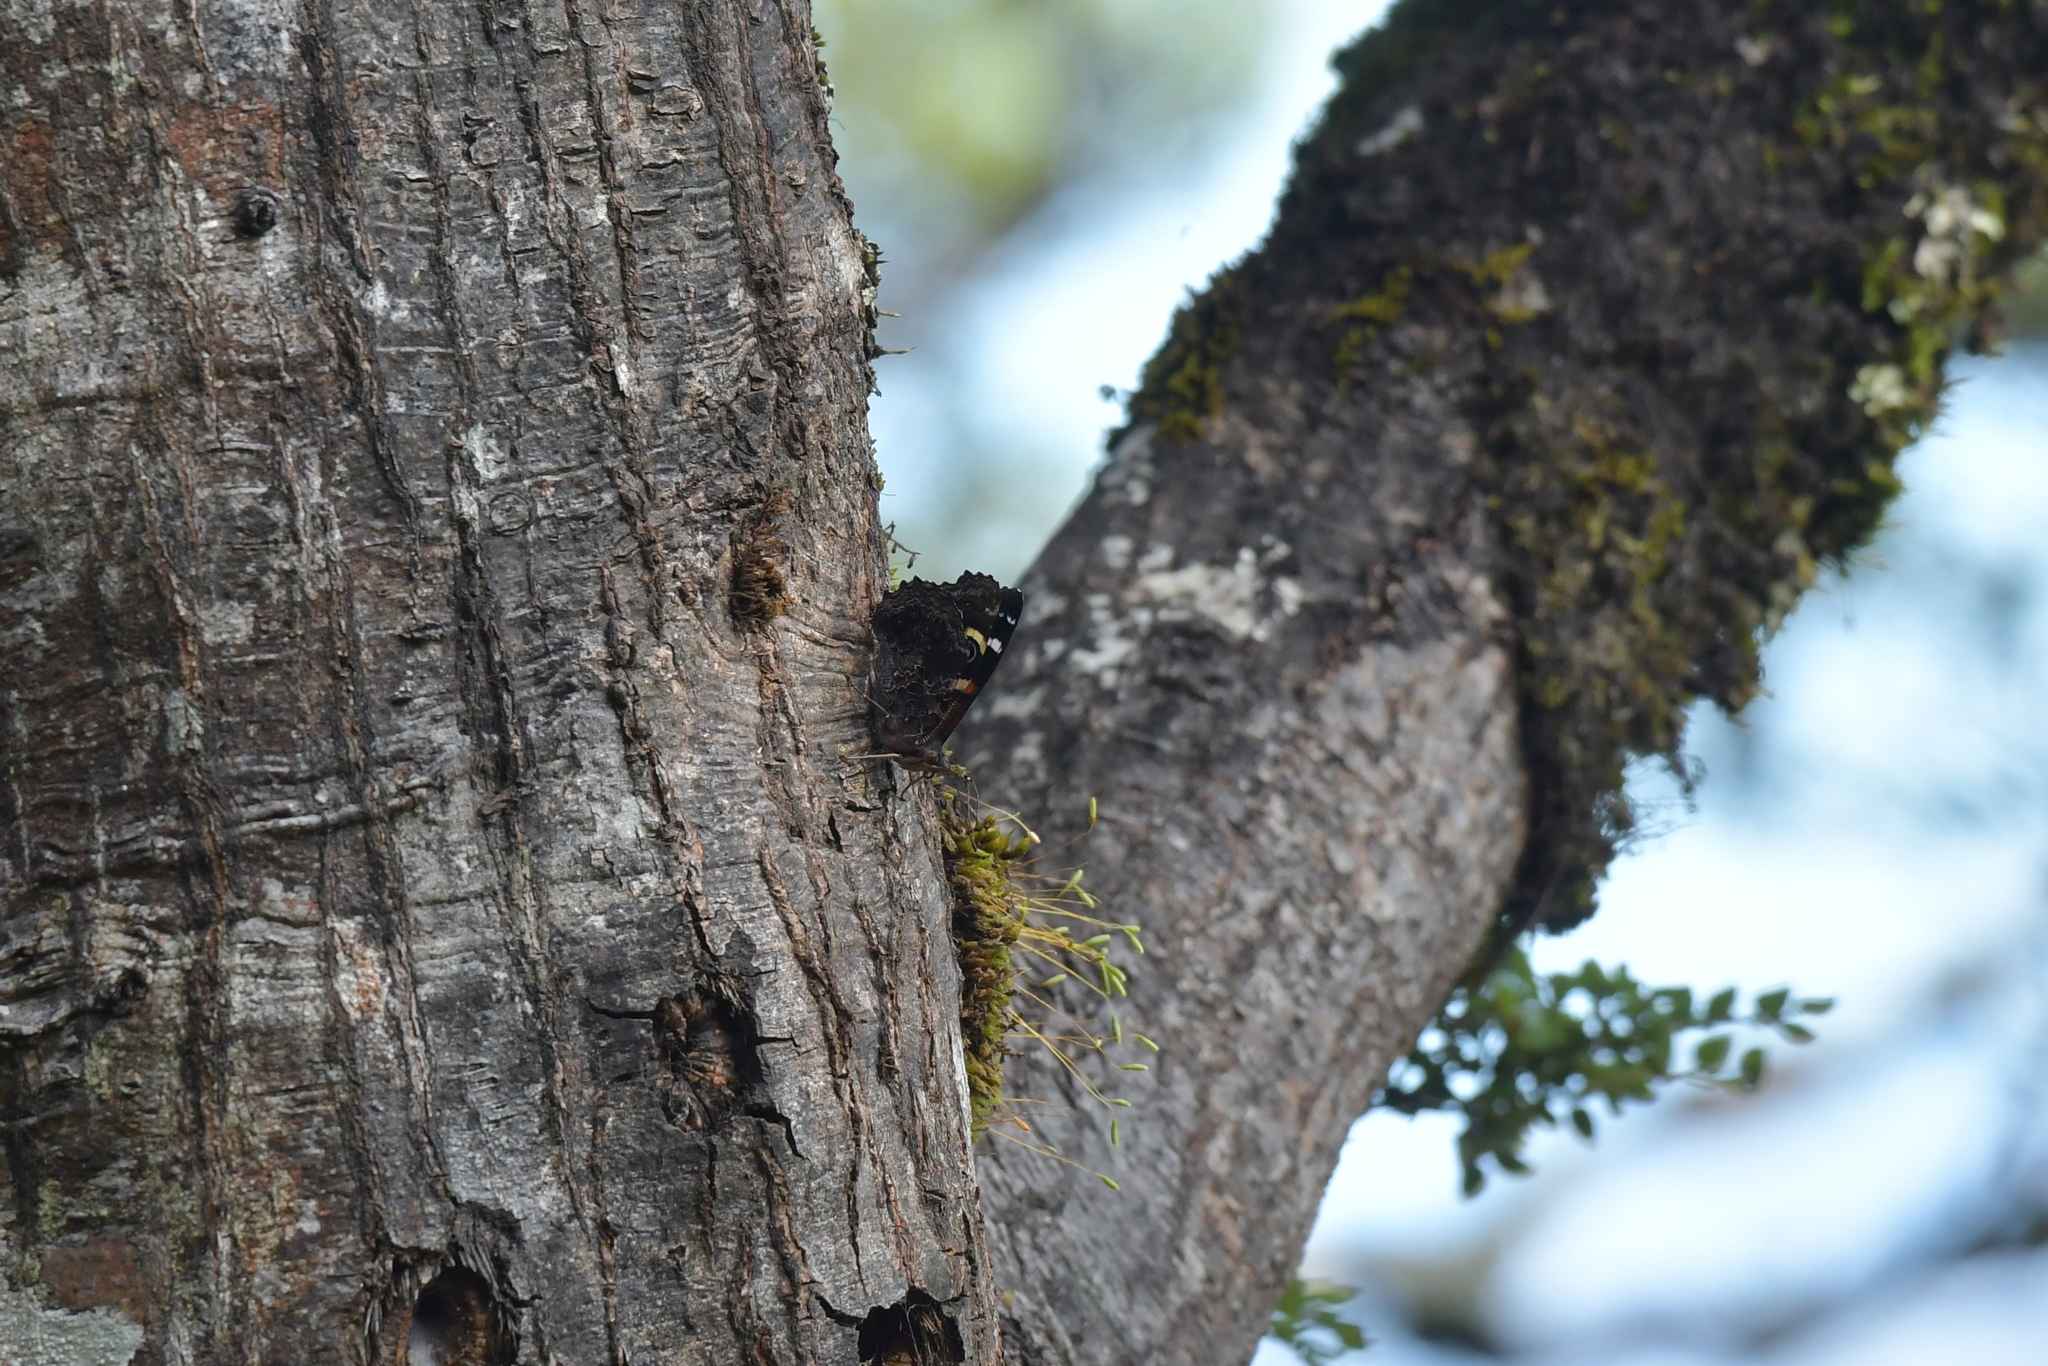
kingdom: Animalia
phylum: Arthropoda
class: Insecta
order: Lepidoptera
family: Nymphalidae
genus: Vanessa
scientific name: Vanessa gonerilla
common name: New zealand red admiral
